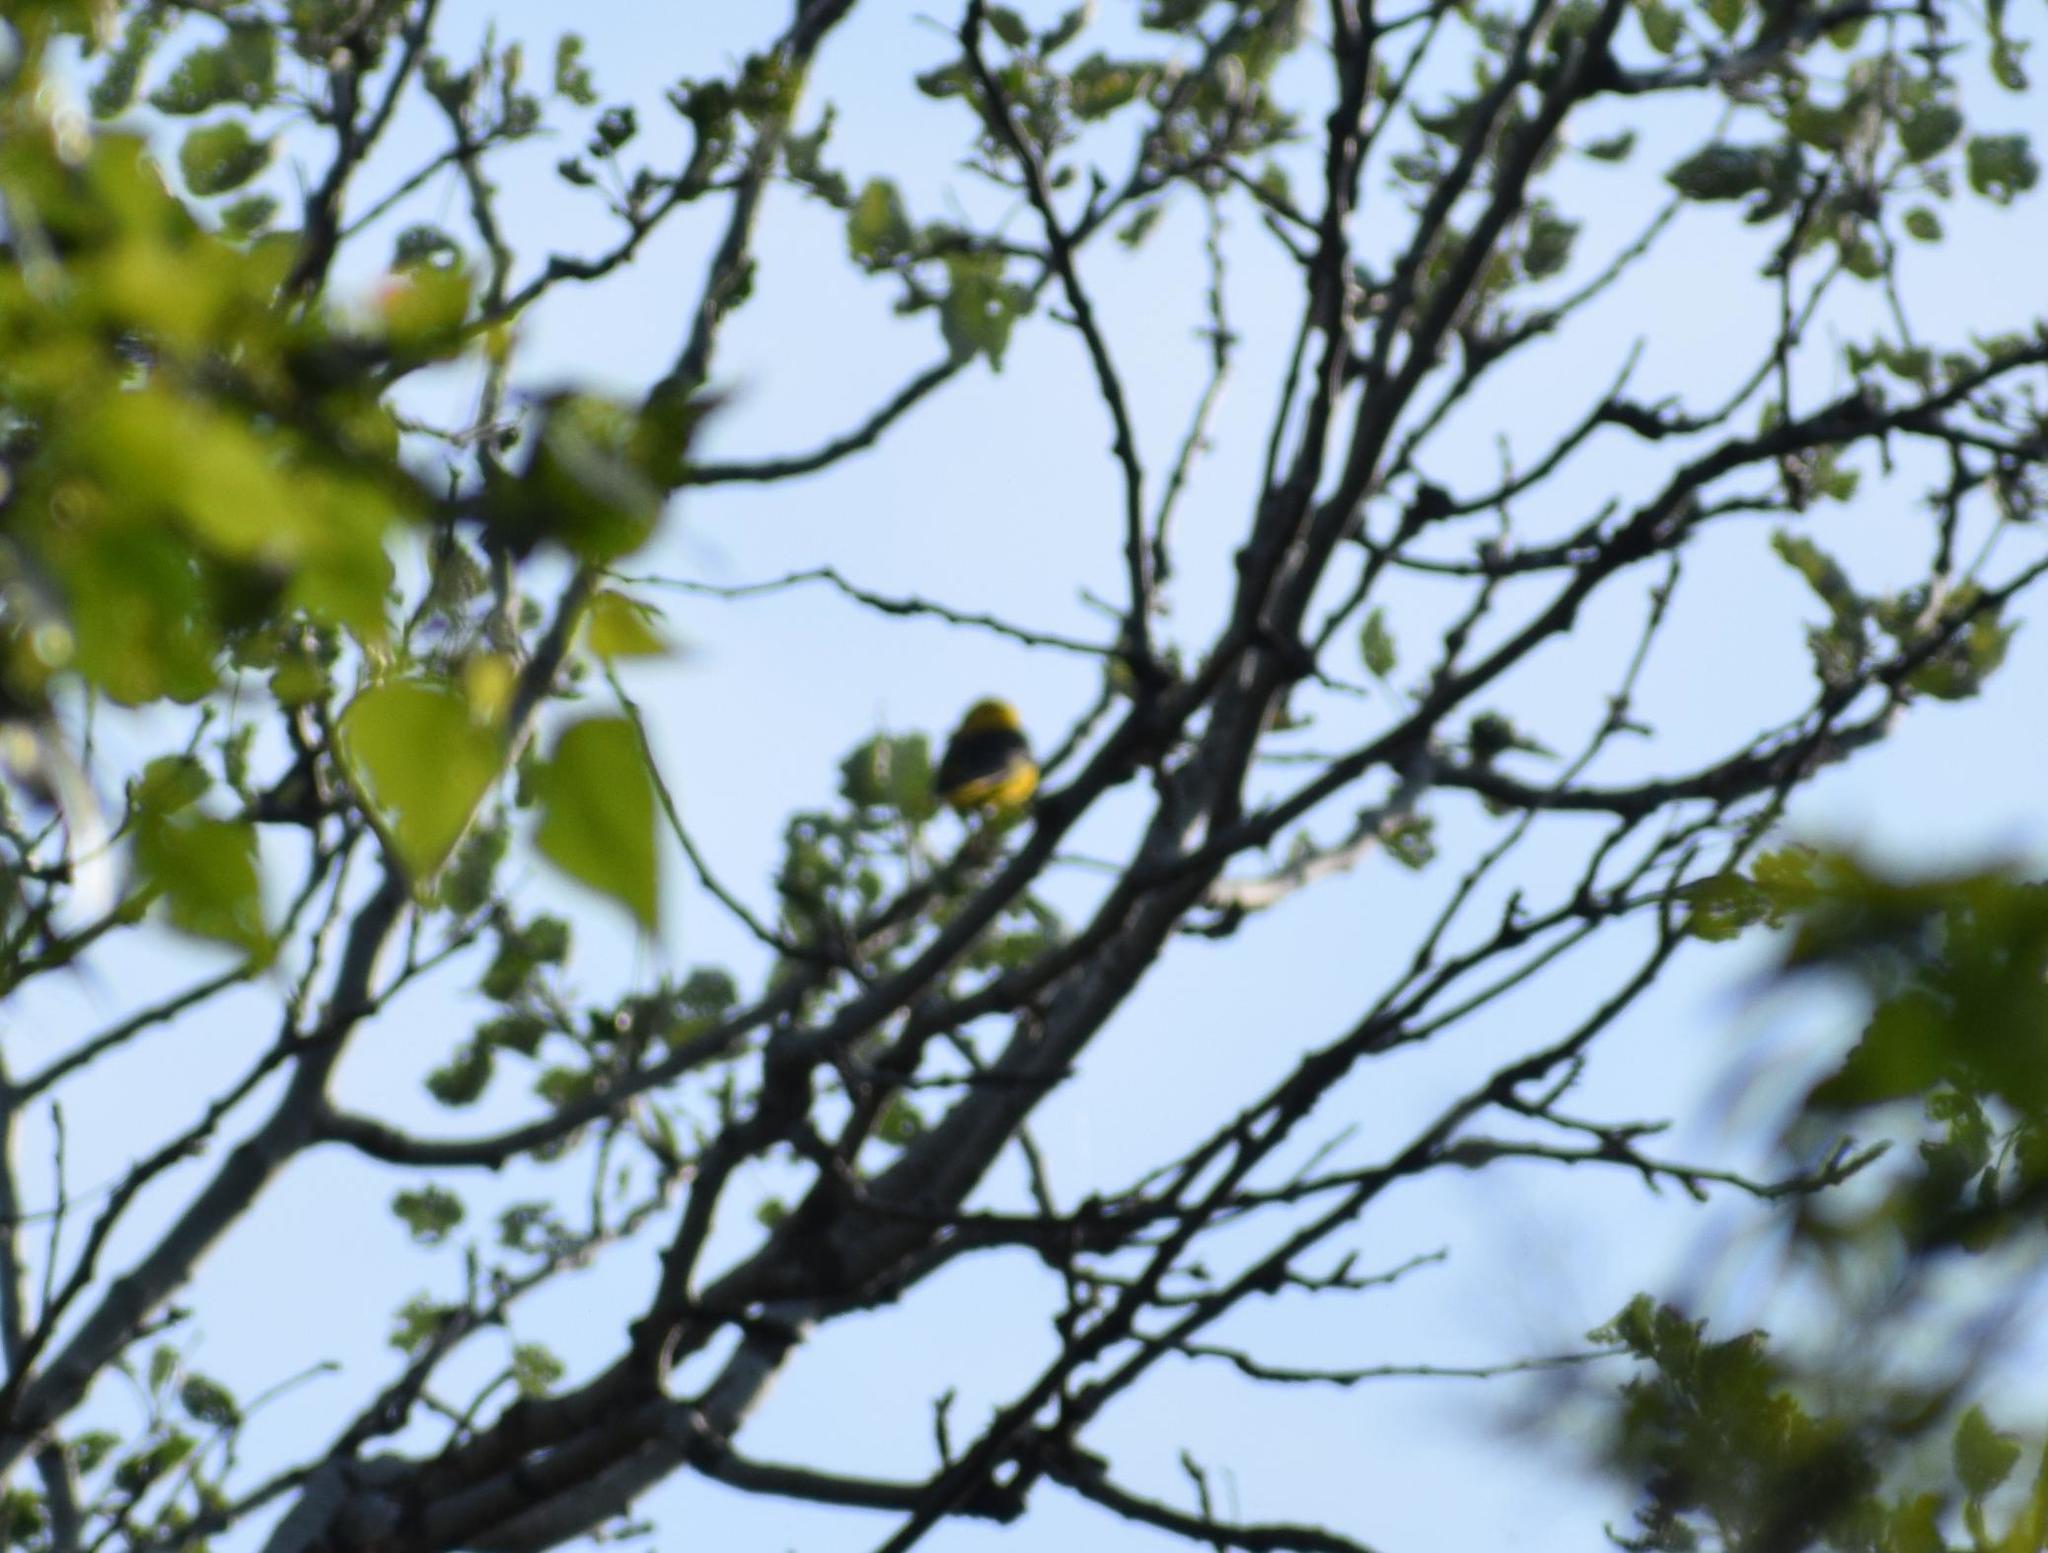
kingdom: Animalia
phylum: Chordata
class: Aves
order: Passeriformes
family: Oriolidae
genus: Oriolus
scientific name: Oriolus oriolus
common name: Eurasian golden oriole
